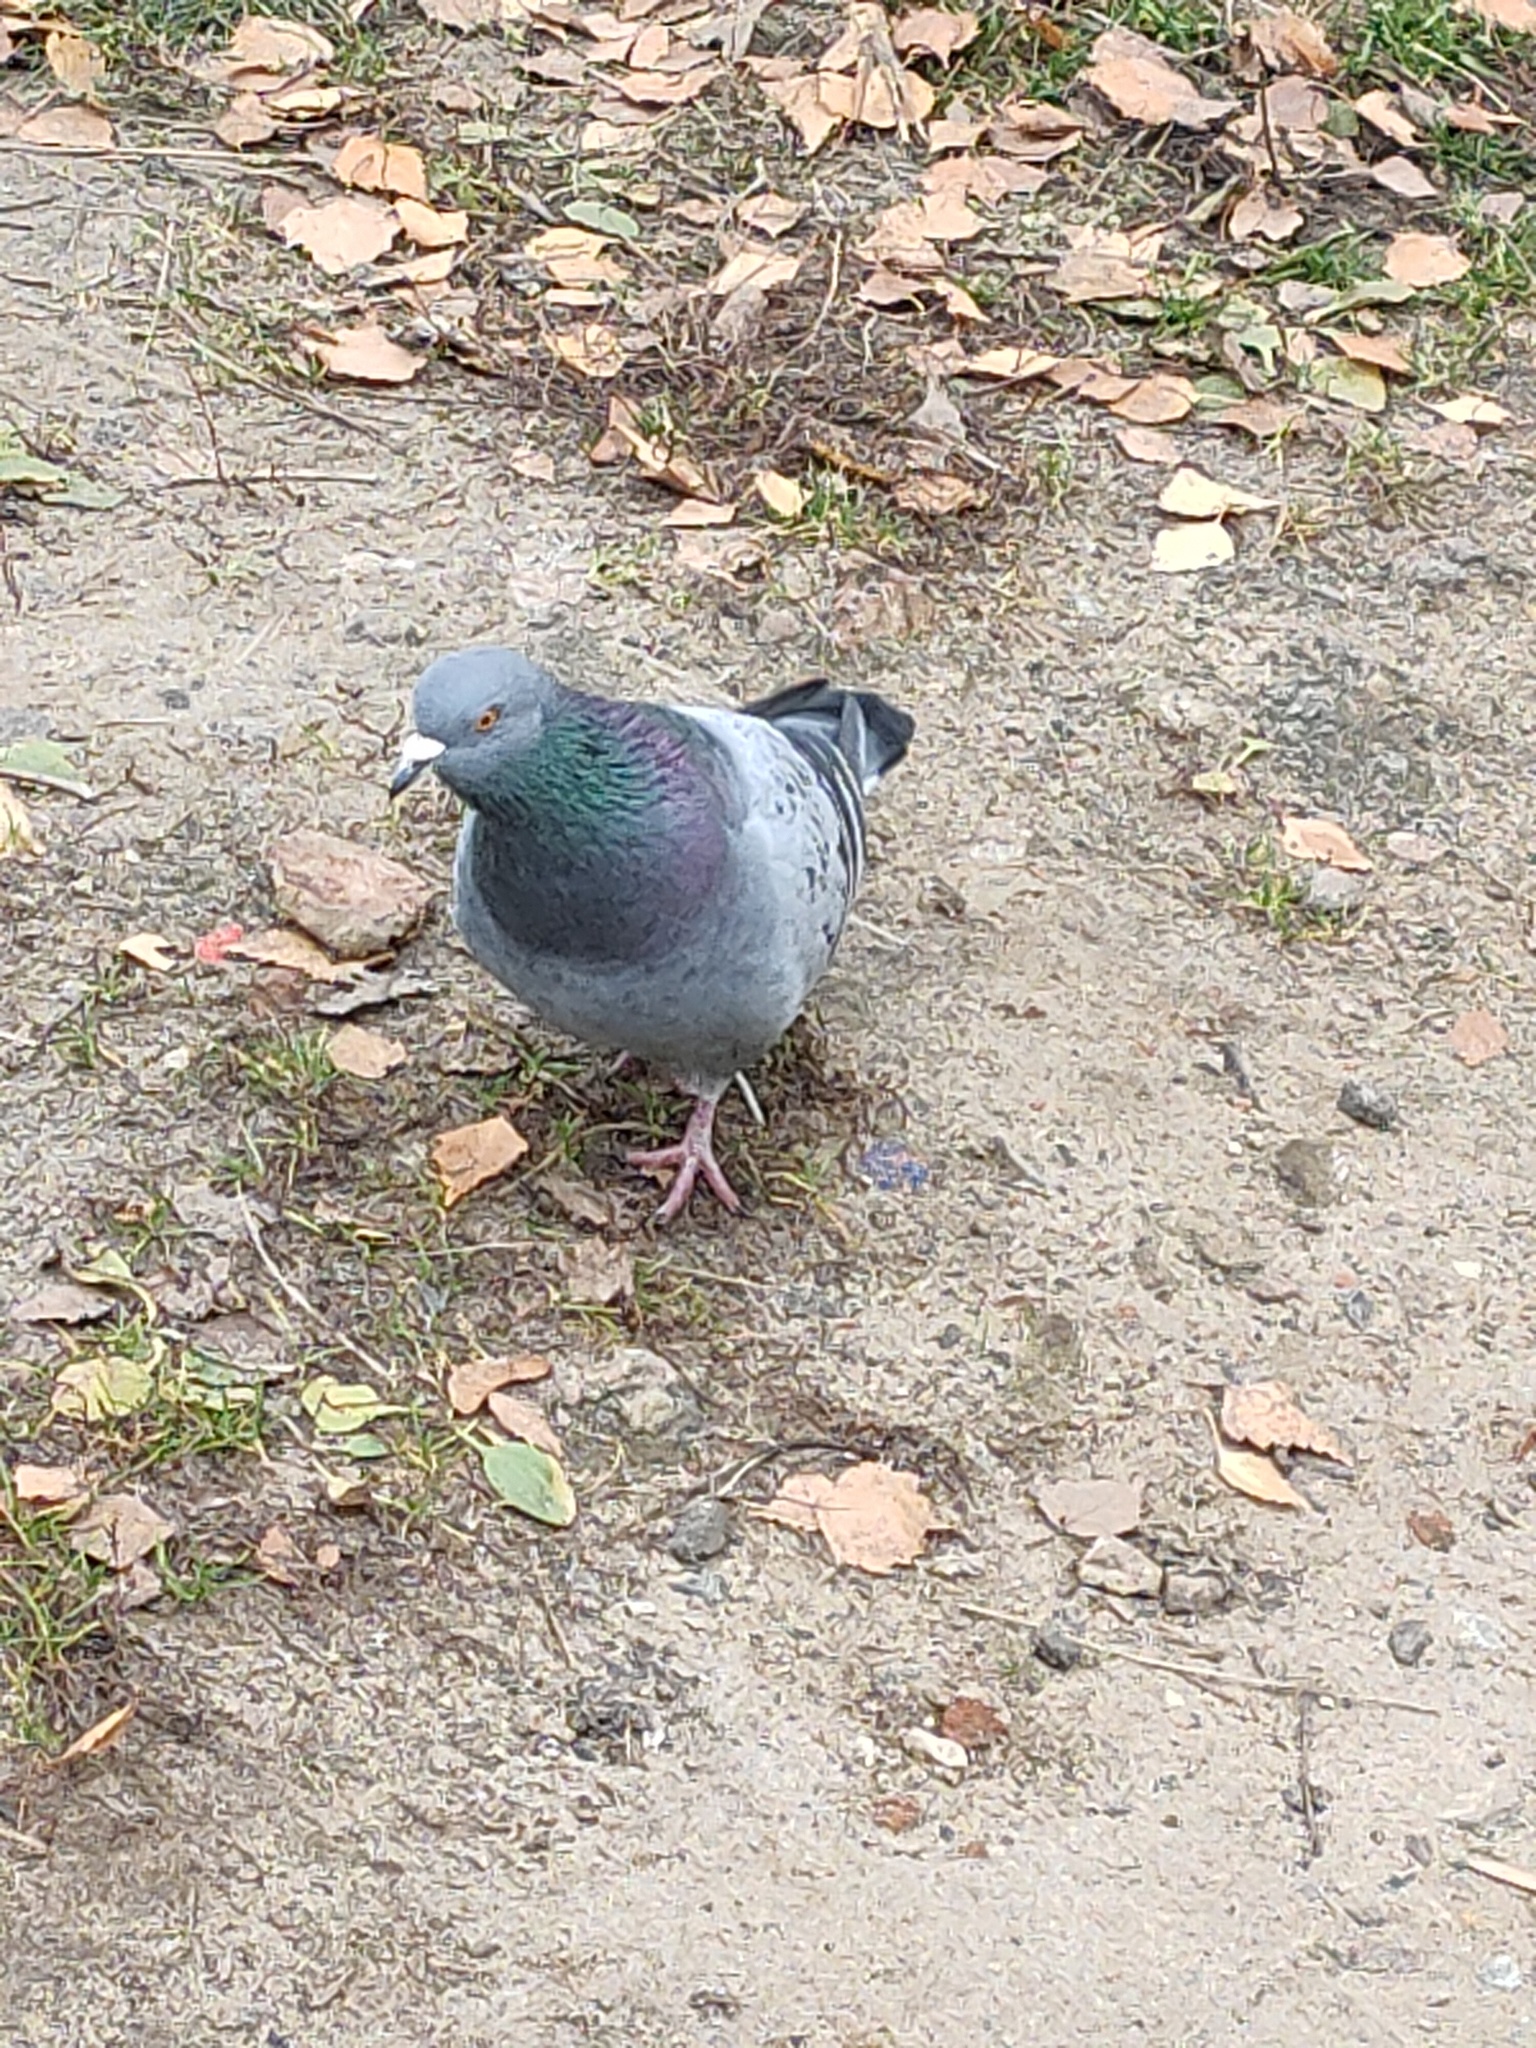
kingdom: Animalia
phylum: Chordata
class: Aves
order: Columbiformes
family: Columbidae
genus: Columba
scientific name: Columba livia
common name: Rock pigeon
